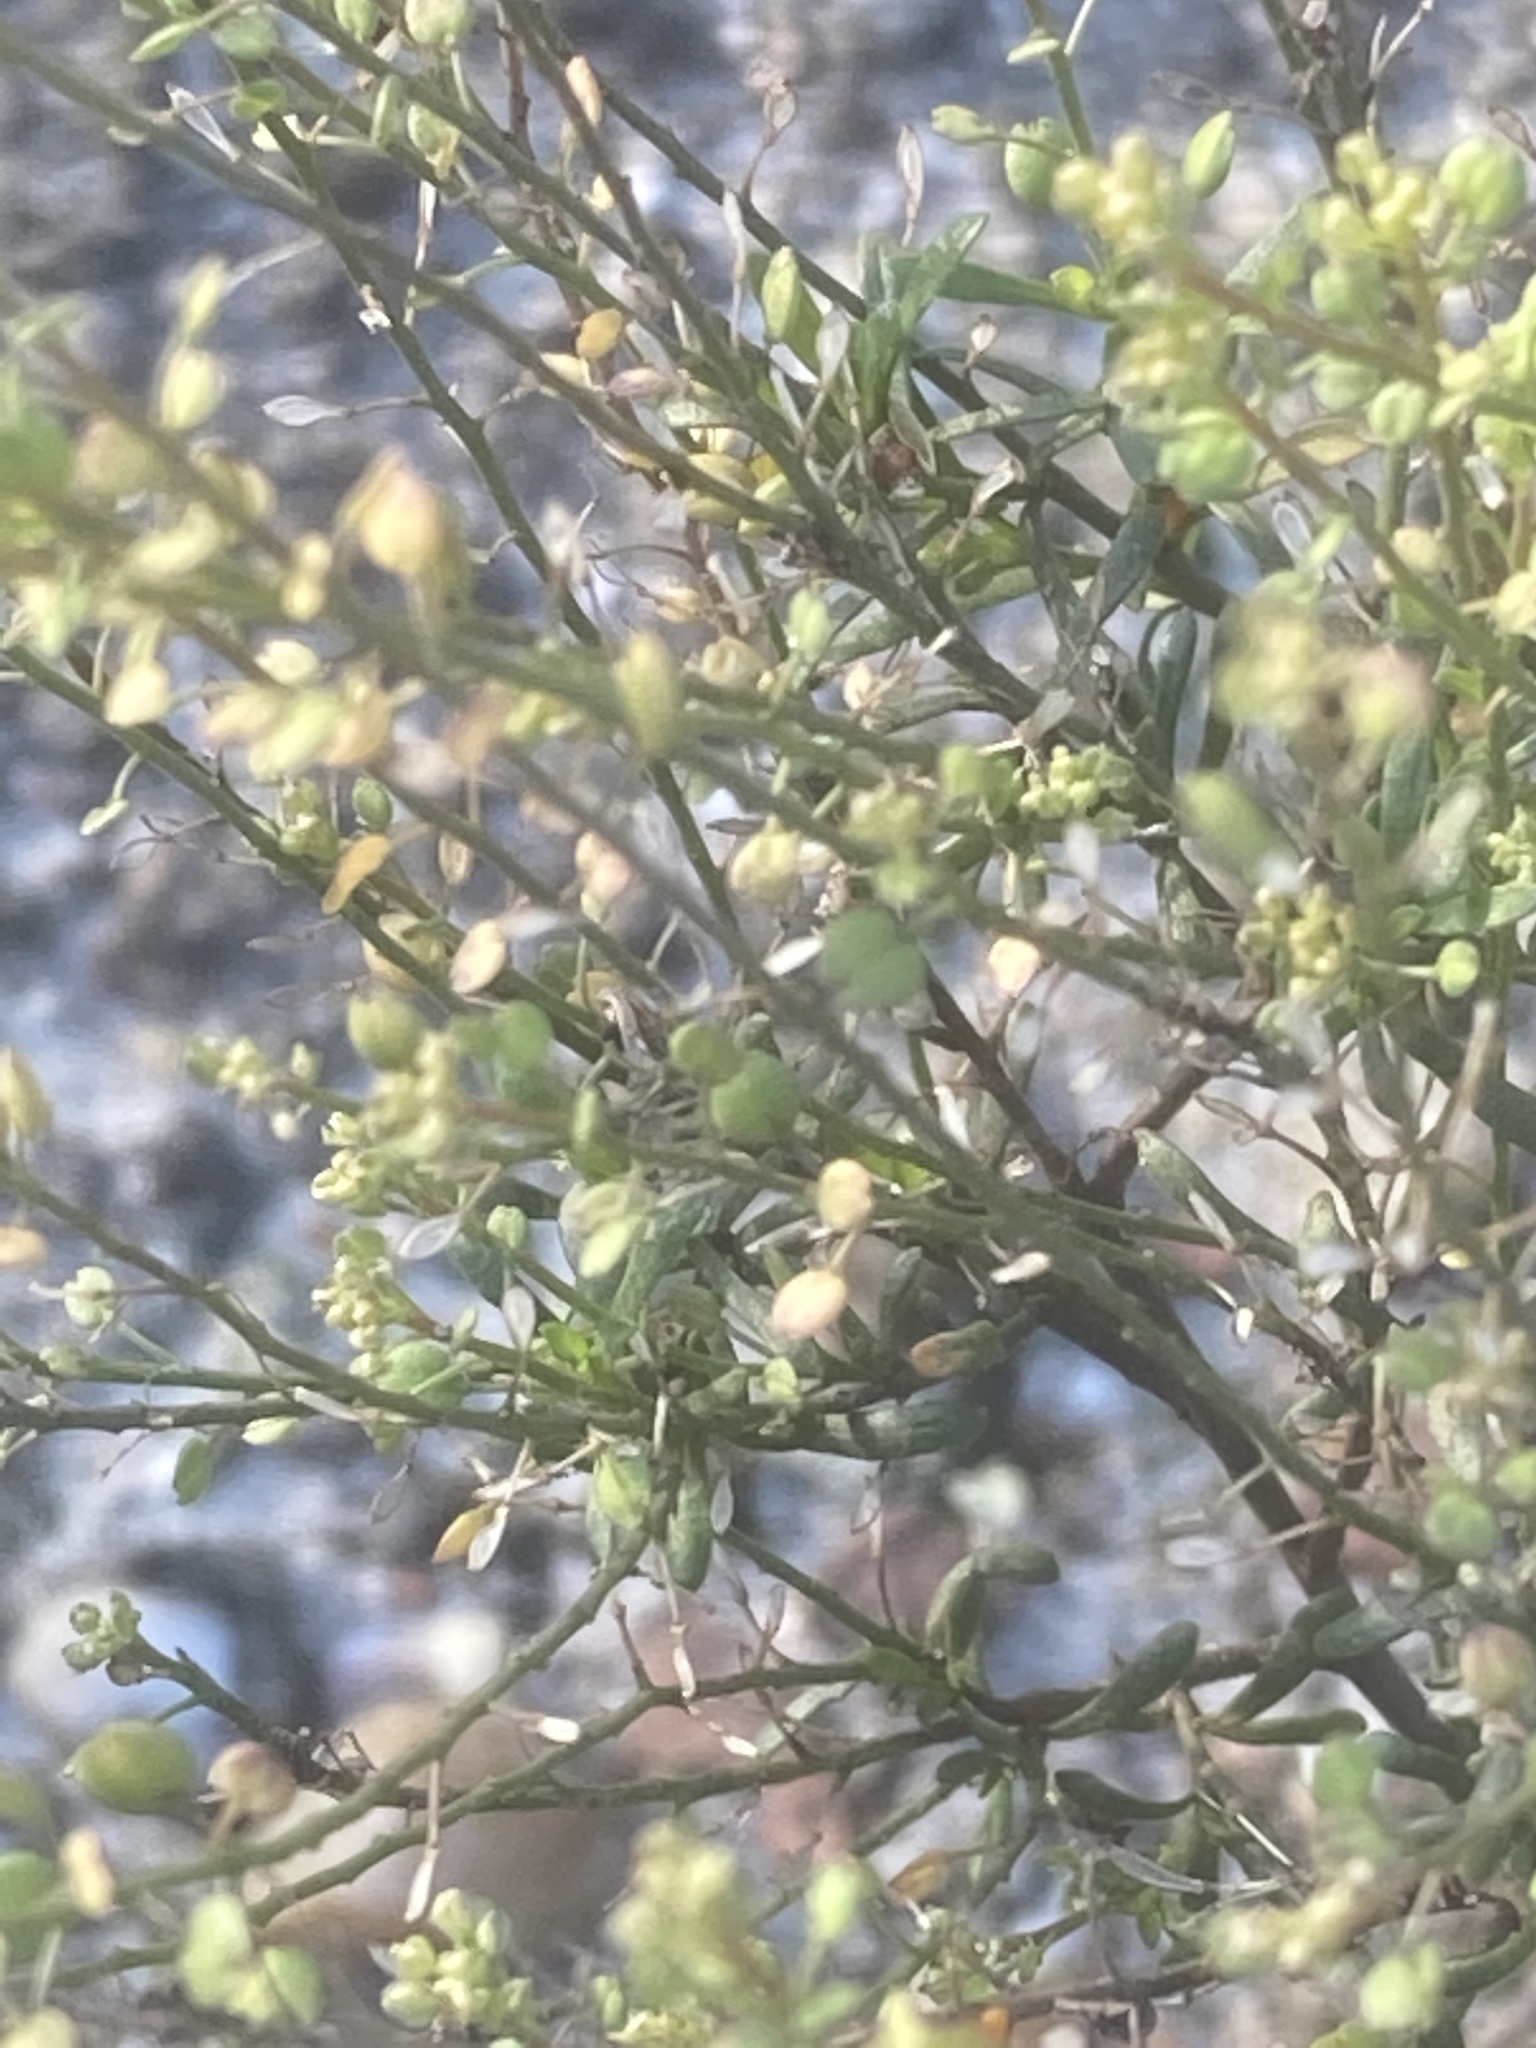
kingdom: Plantae
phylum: Tracheophyta
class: Magnoliopsida
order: Brassicales
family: Brassicaceae
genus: Lepidium
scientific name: Lepidium ruderale
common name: Narrow-leaved pepperwort
